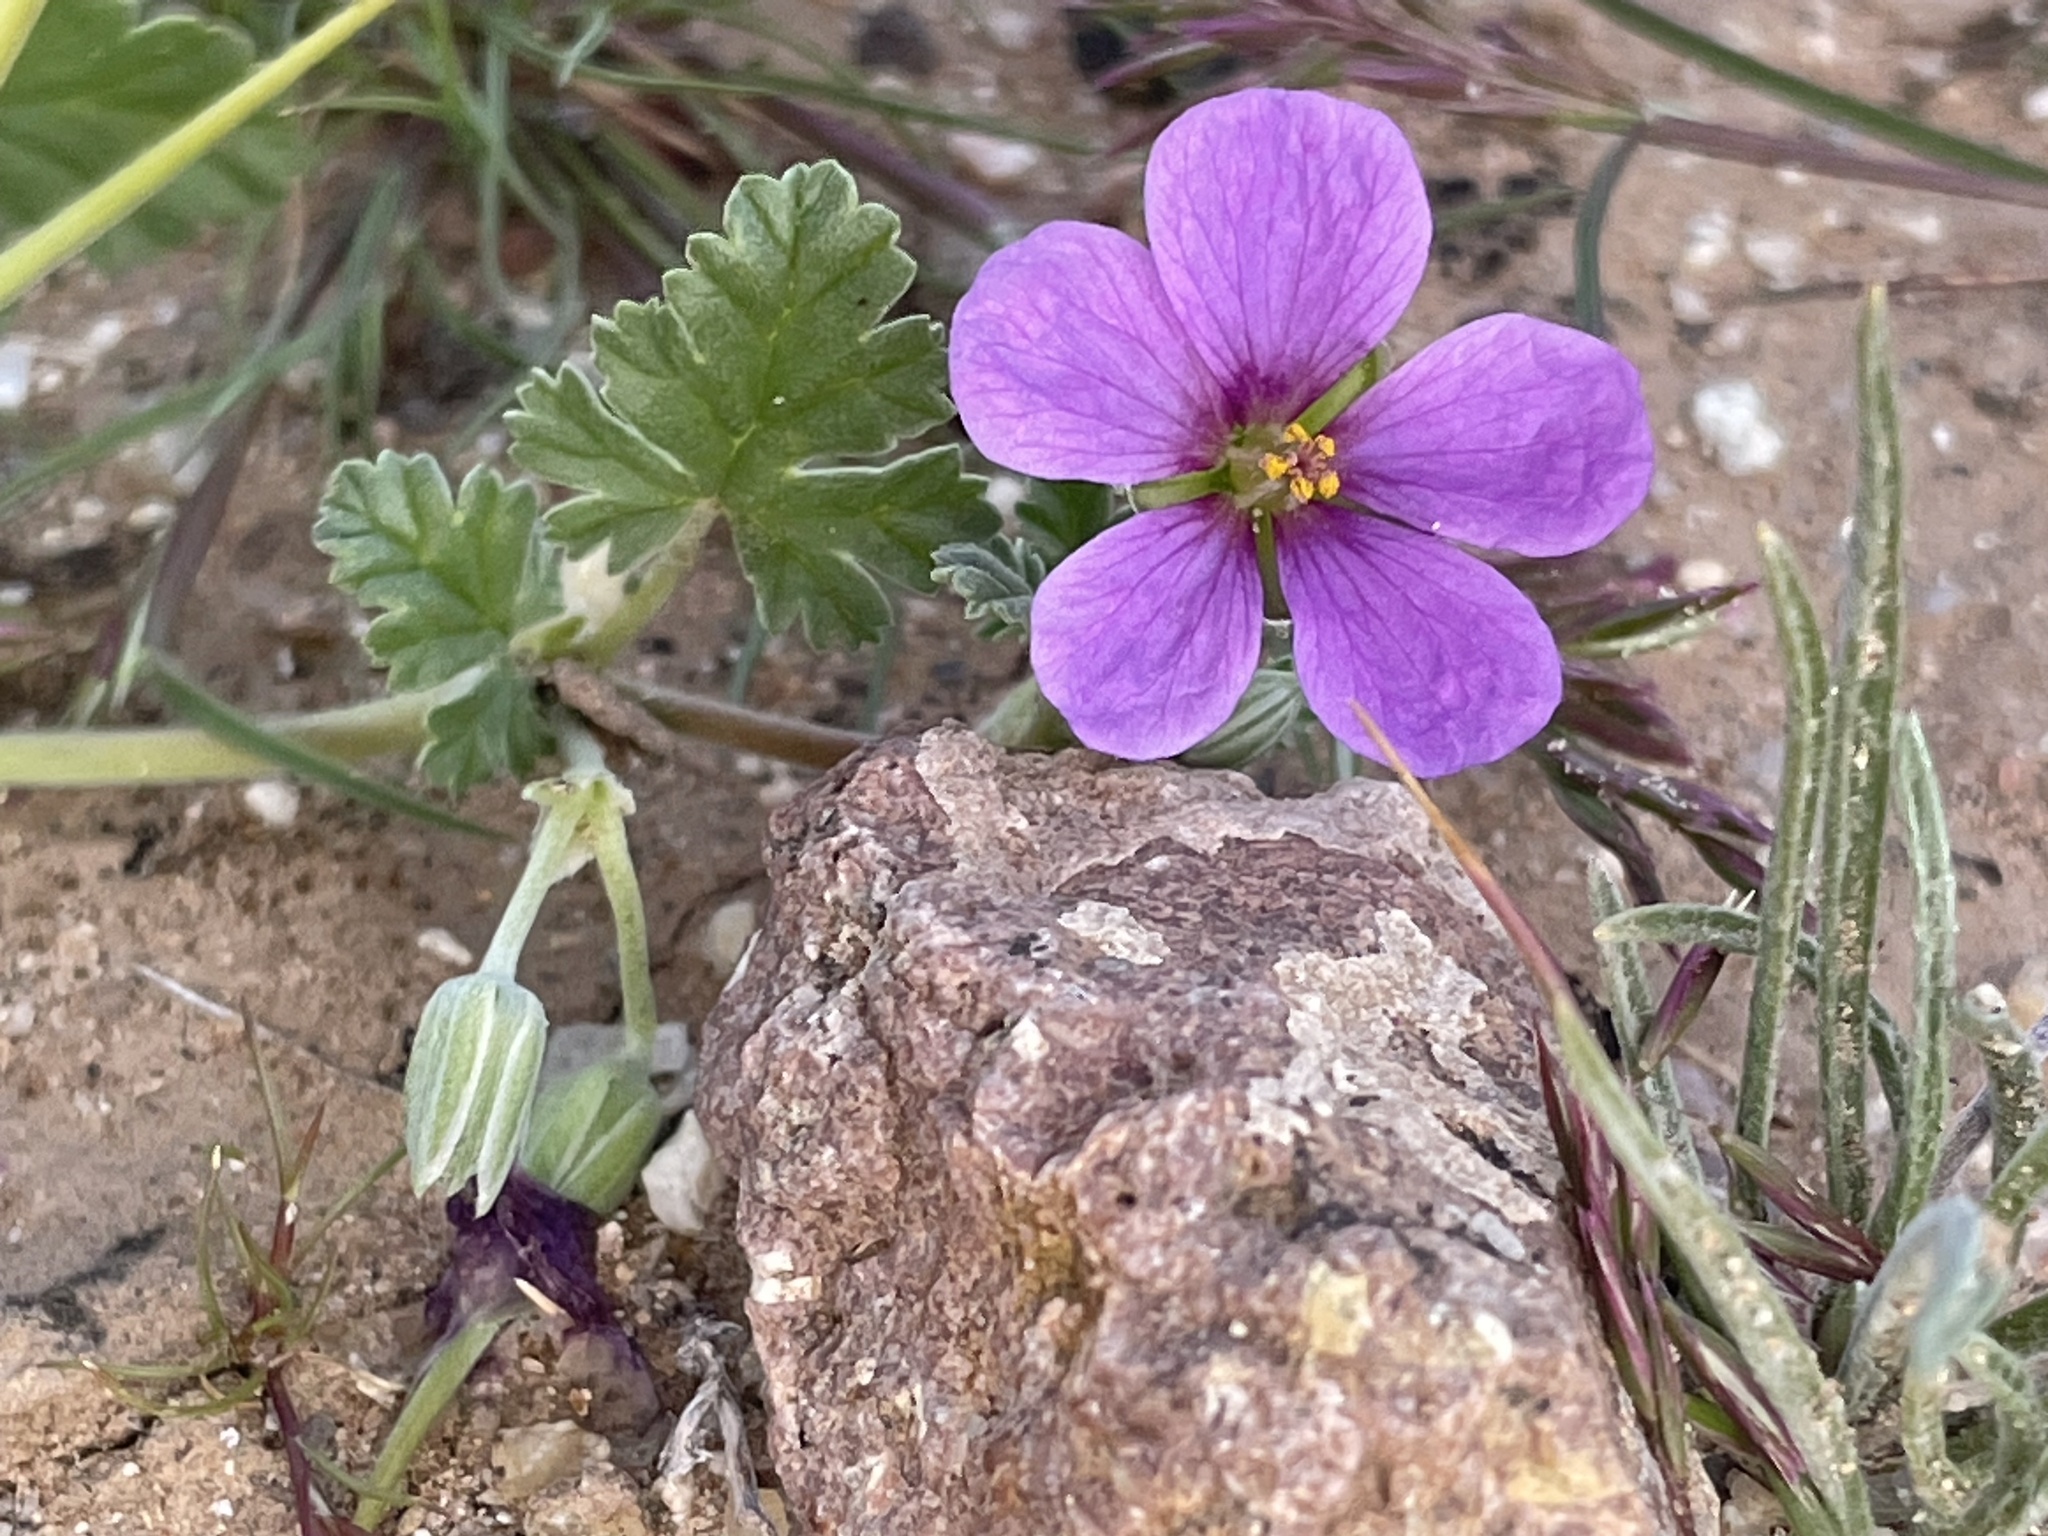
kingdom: Plantae
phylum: Tracheophyta
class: Magnoliopsida
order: Geraniales
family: Geraniaceae
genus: Erodium
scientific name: Erodium texanum
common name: Texas stork's-bill
